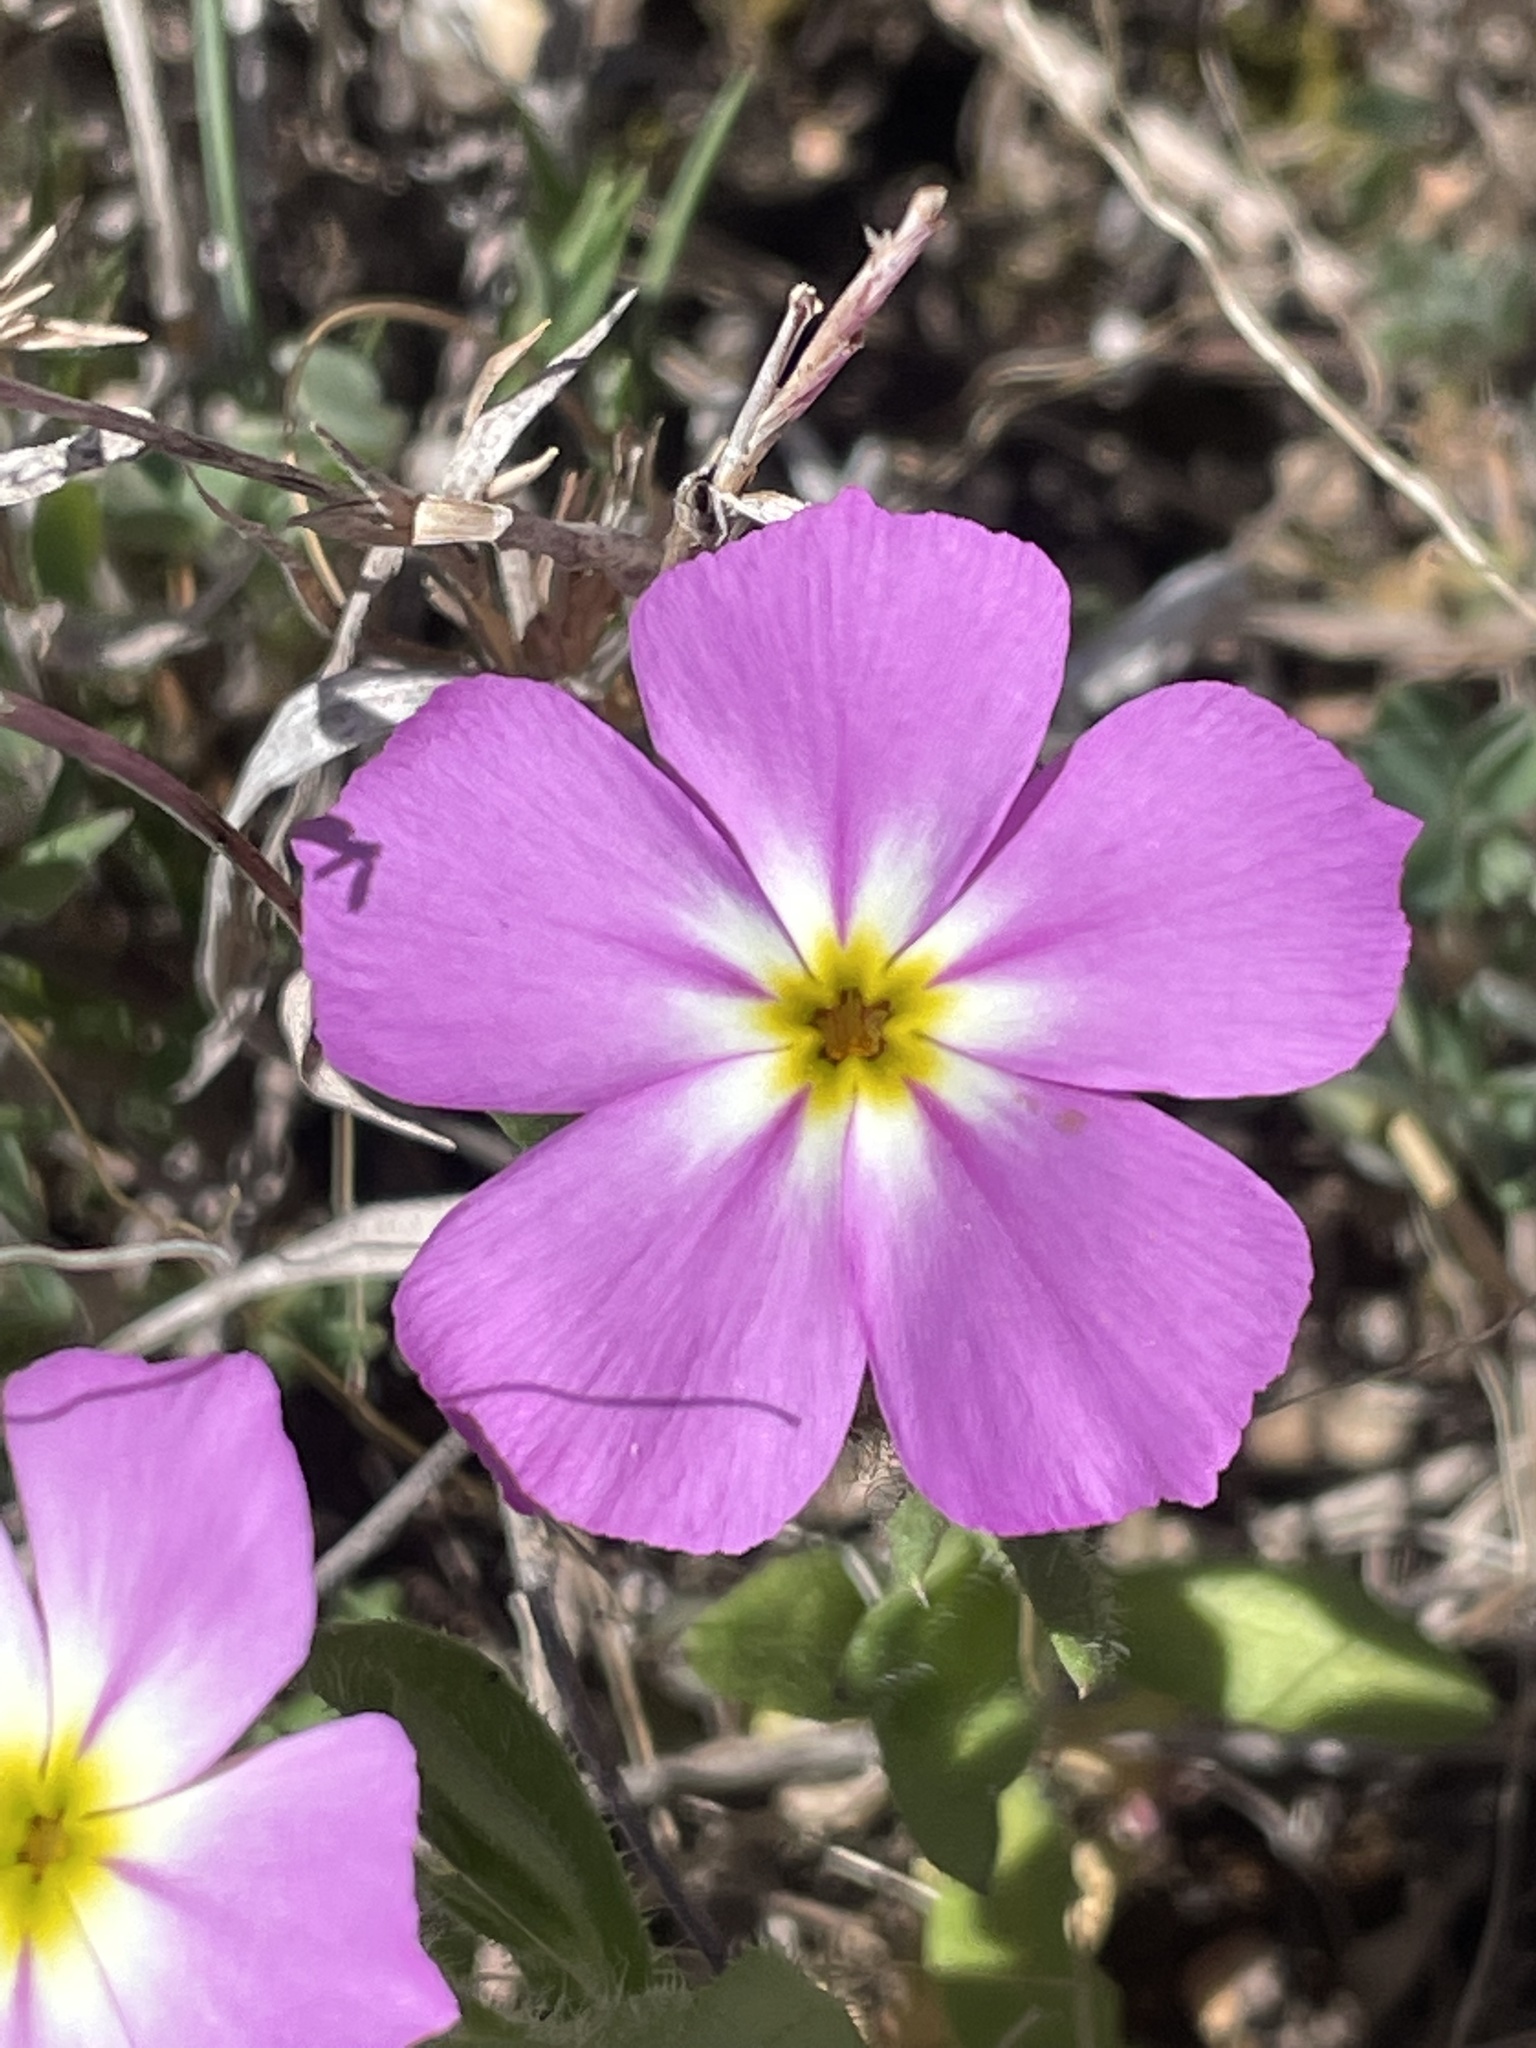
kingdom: Plantae
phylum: Tracheophyta
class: Magnoliopsida
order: Ericales
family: Polemoniaceae
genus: Phlox
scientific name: Phlox roemeriana
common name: Roemer's phlox
